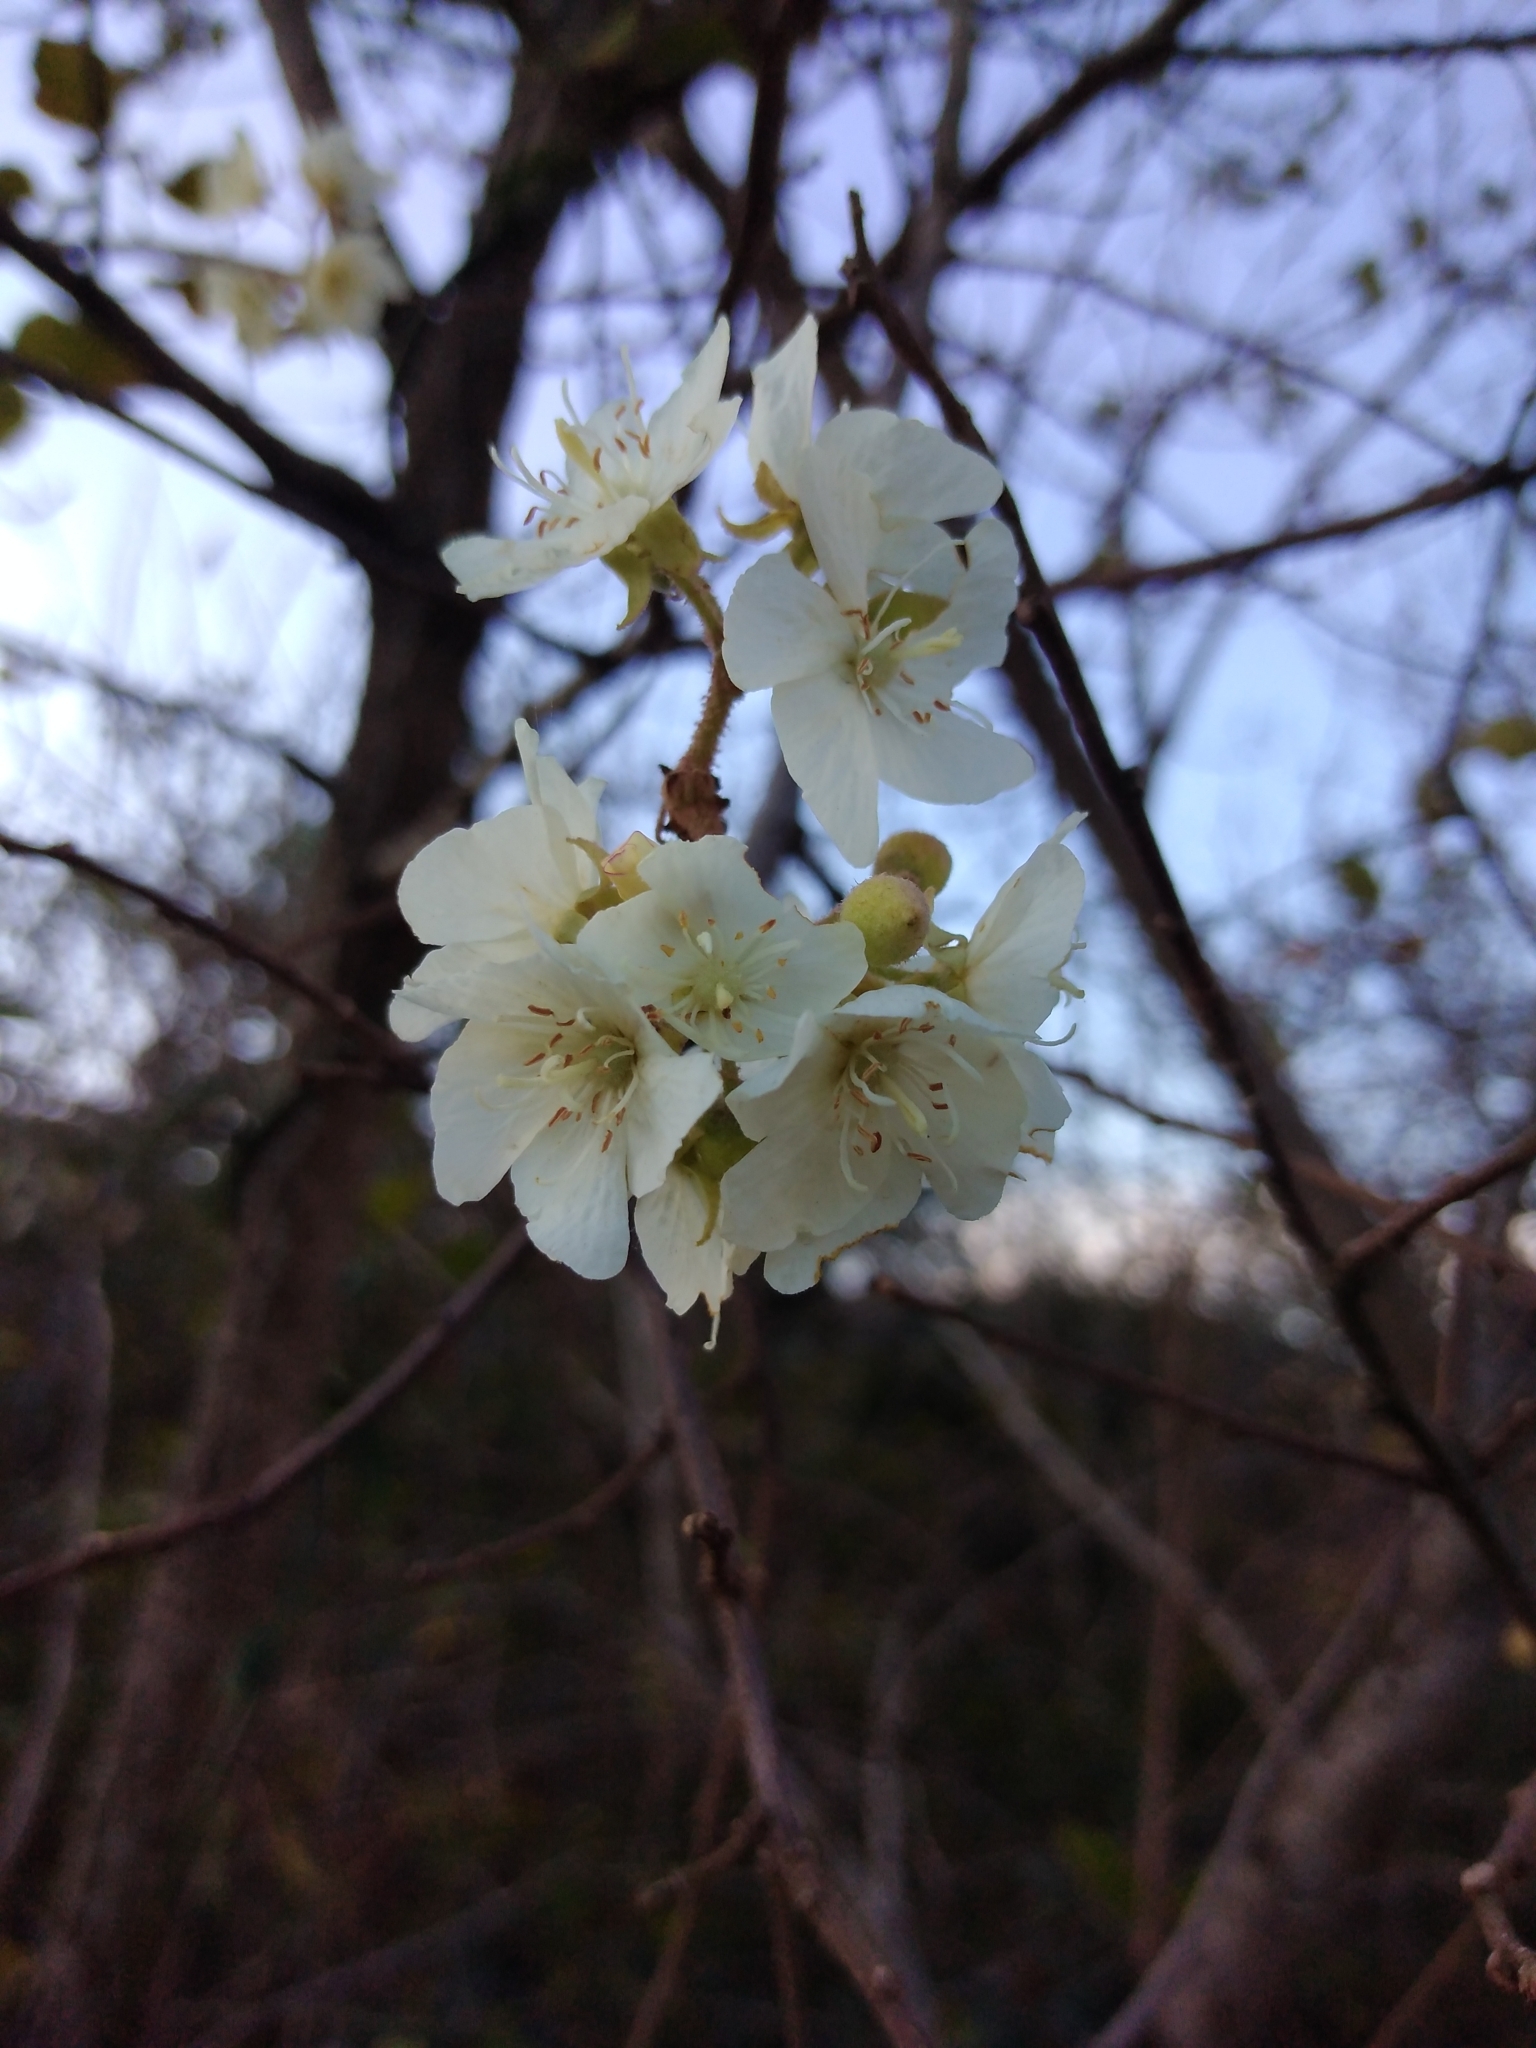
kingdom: Plantae
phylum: Tracheophyta
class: Magnoliopsida
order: Malvales
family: Malvaceae
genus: Dombeya
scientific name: Dombeya rotundifolia
